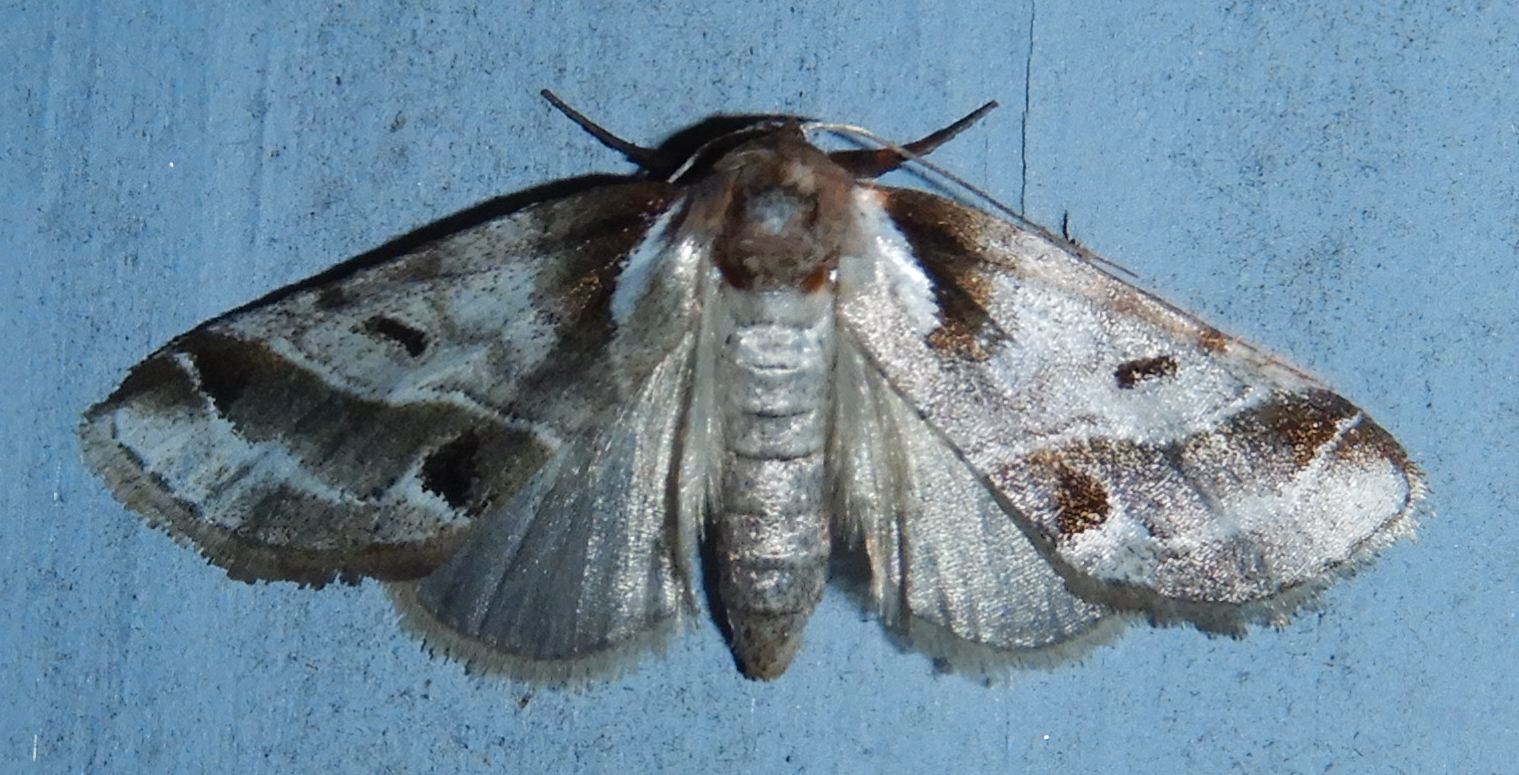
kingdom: Animalia
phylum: Arthropoda
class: Insecta
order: Lepidoptera
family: Nolidae
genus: Baileya
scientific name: Baileya doubledayi
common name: Doubleday's baileya moth
